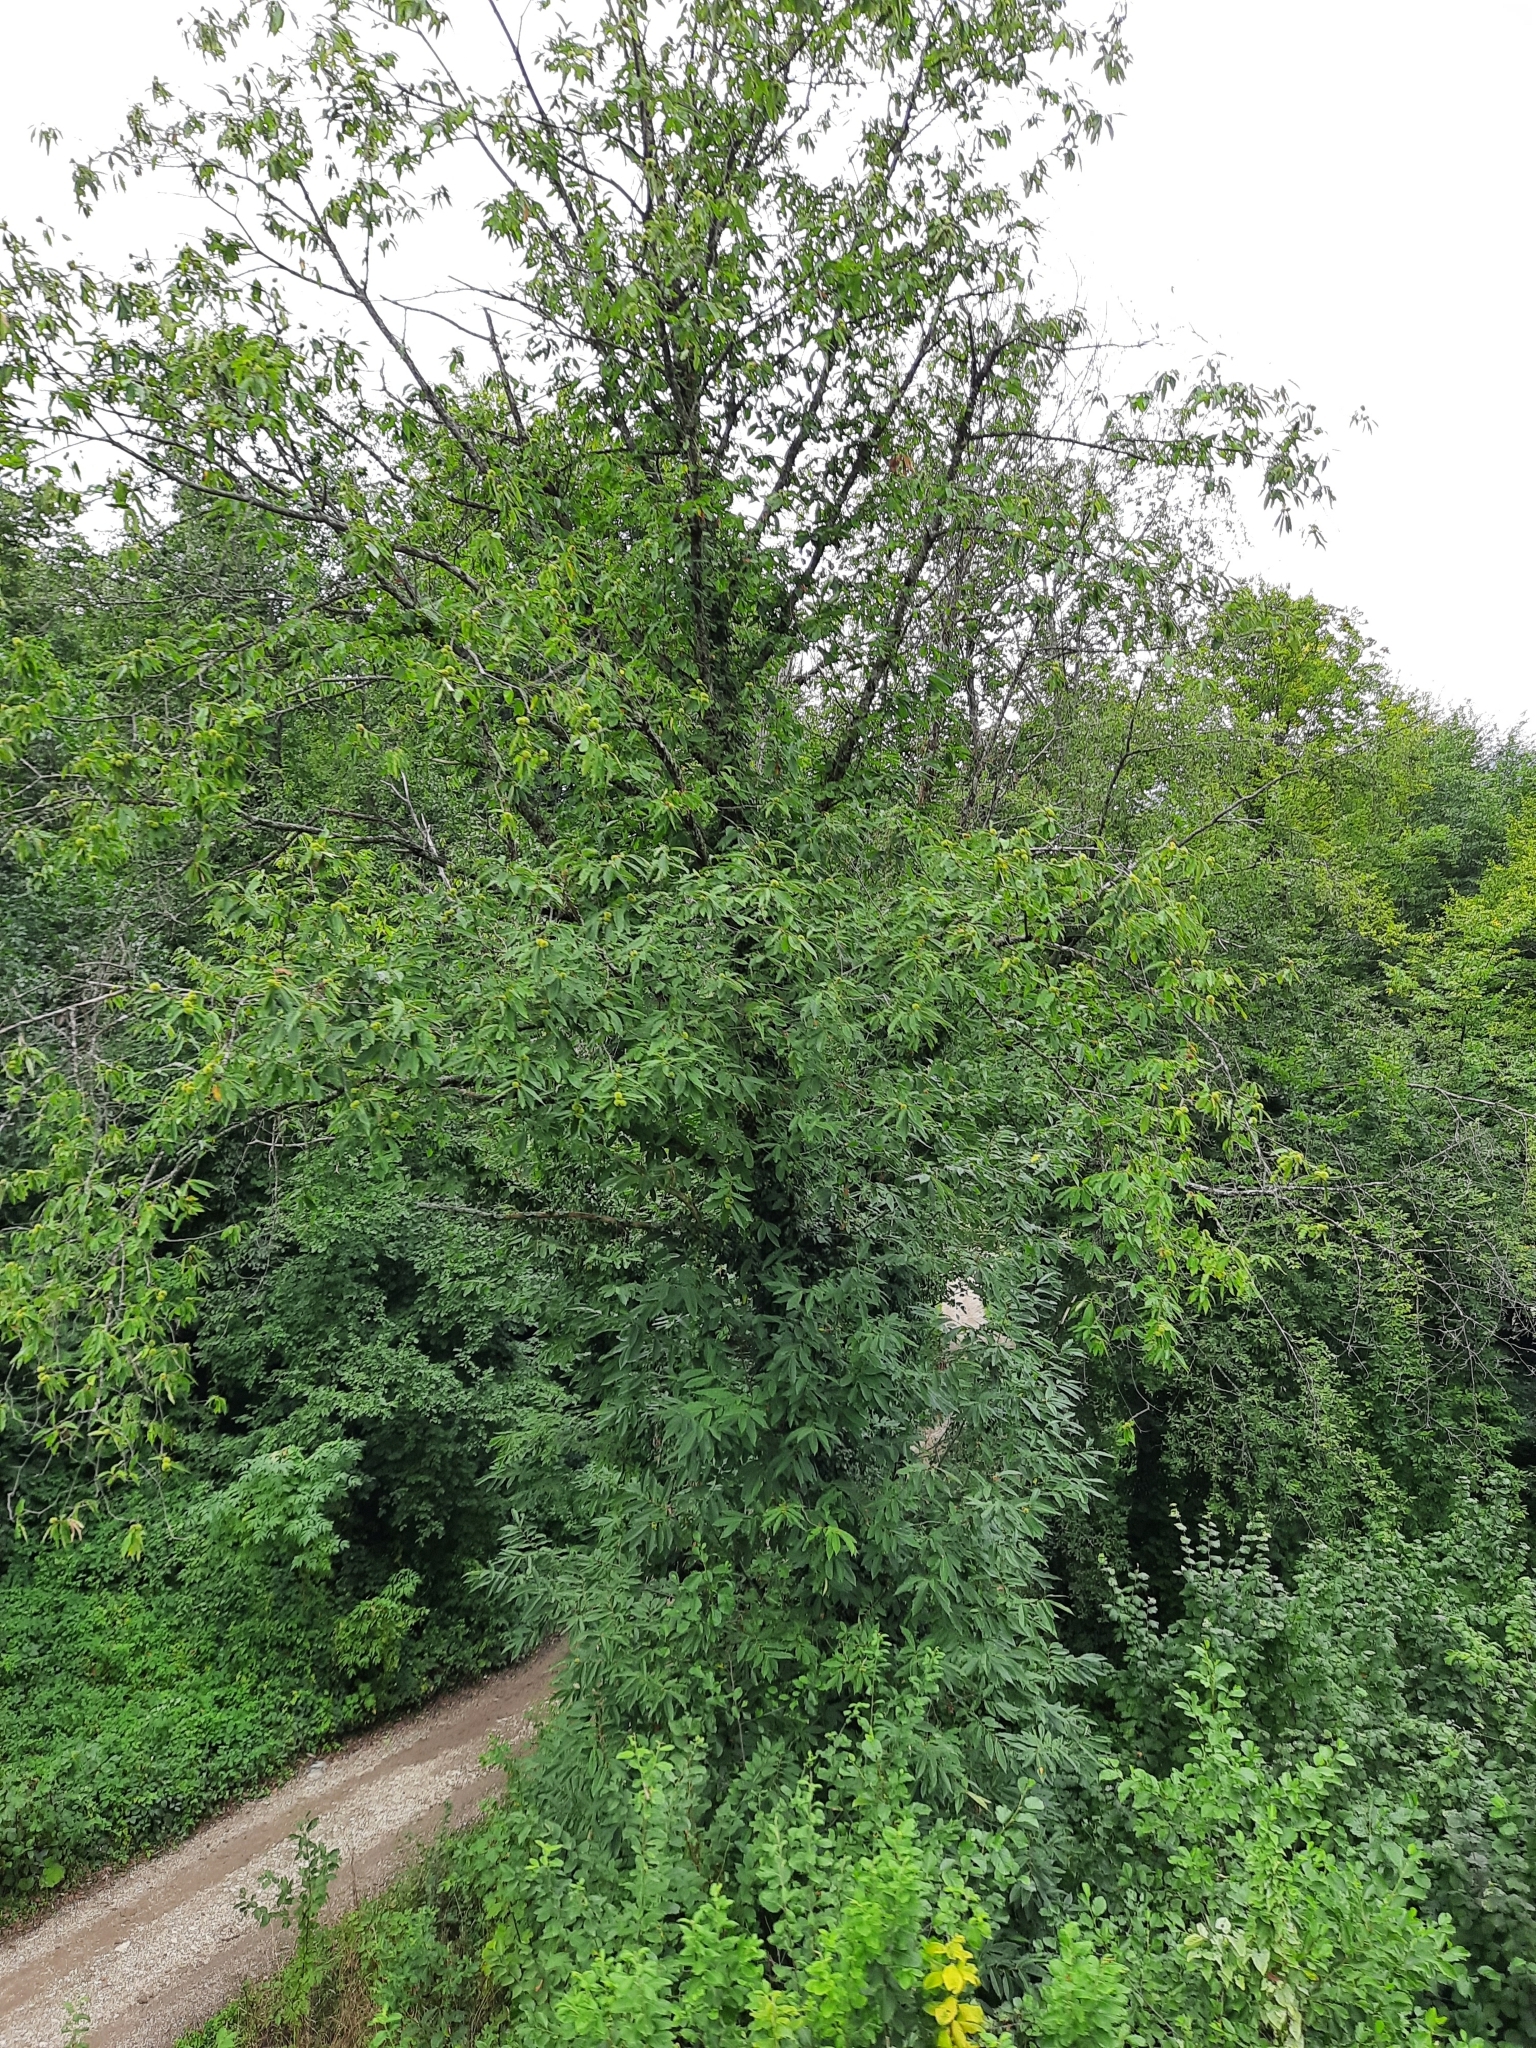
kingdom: Plantae
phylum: Tracheophyta
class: Magnoliopsida
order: Fagales
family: Fagaceae
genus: Castanea
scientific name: Castanea sativa
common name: Sweet chestnut
